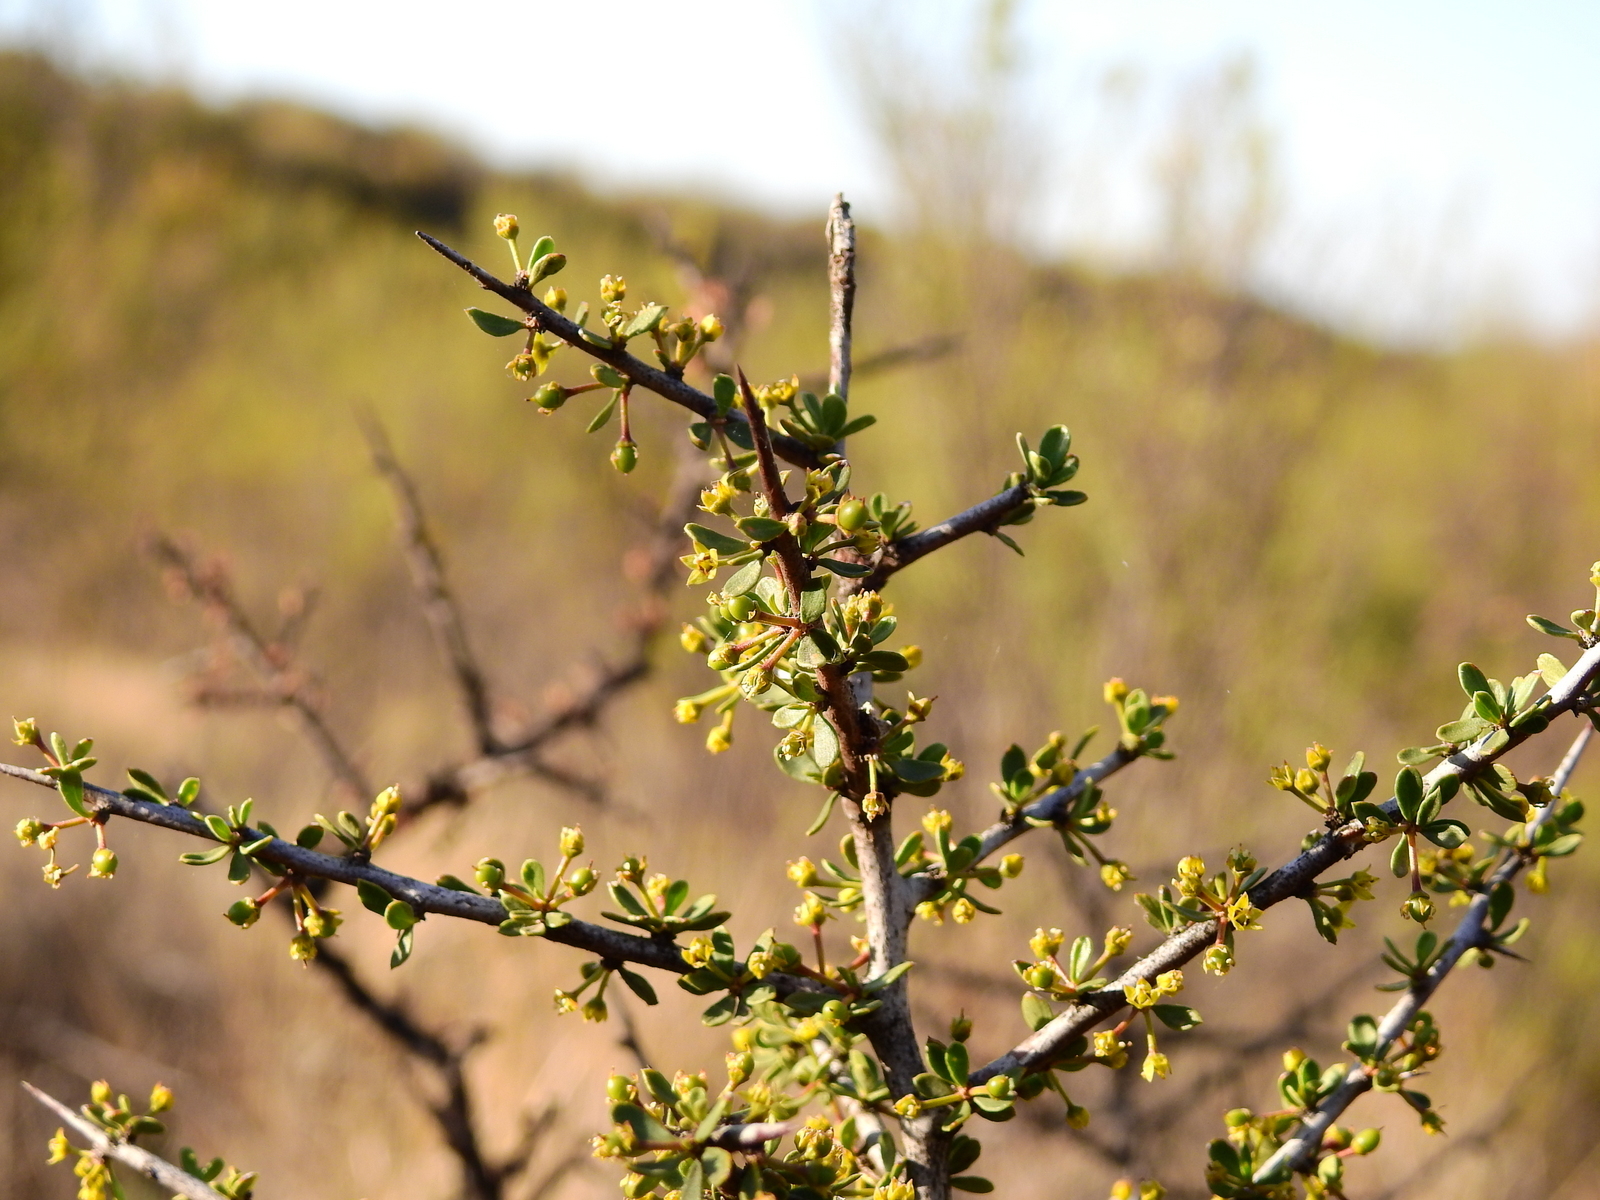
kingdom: Plantae
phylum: Tracheophyta
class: Magnoliopsida
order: Rosales
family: Rhamnaceae
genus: Condalia
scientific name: Condalia microphylla
